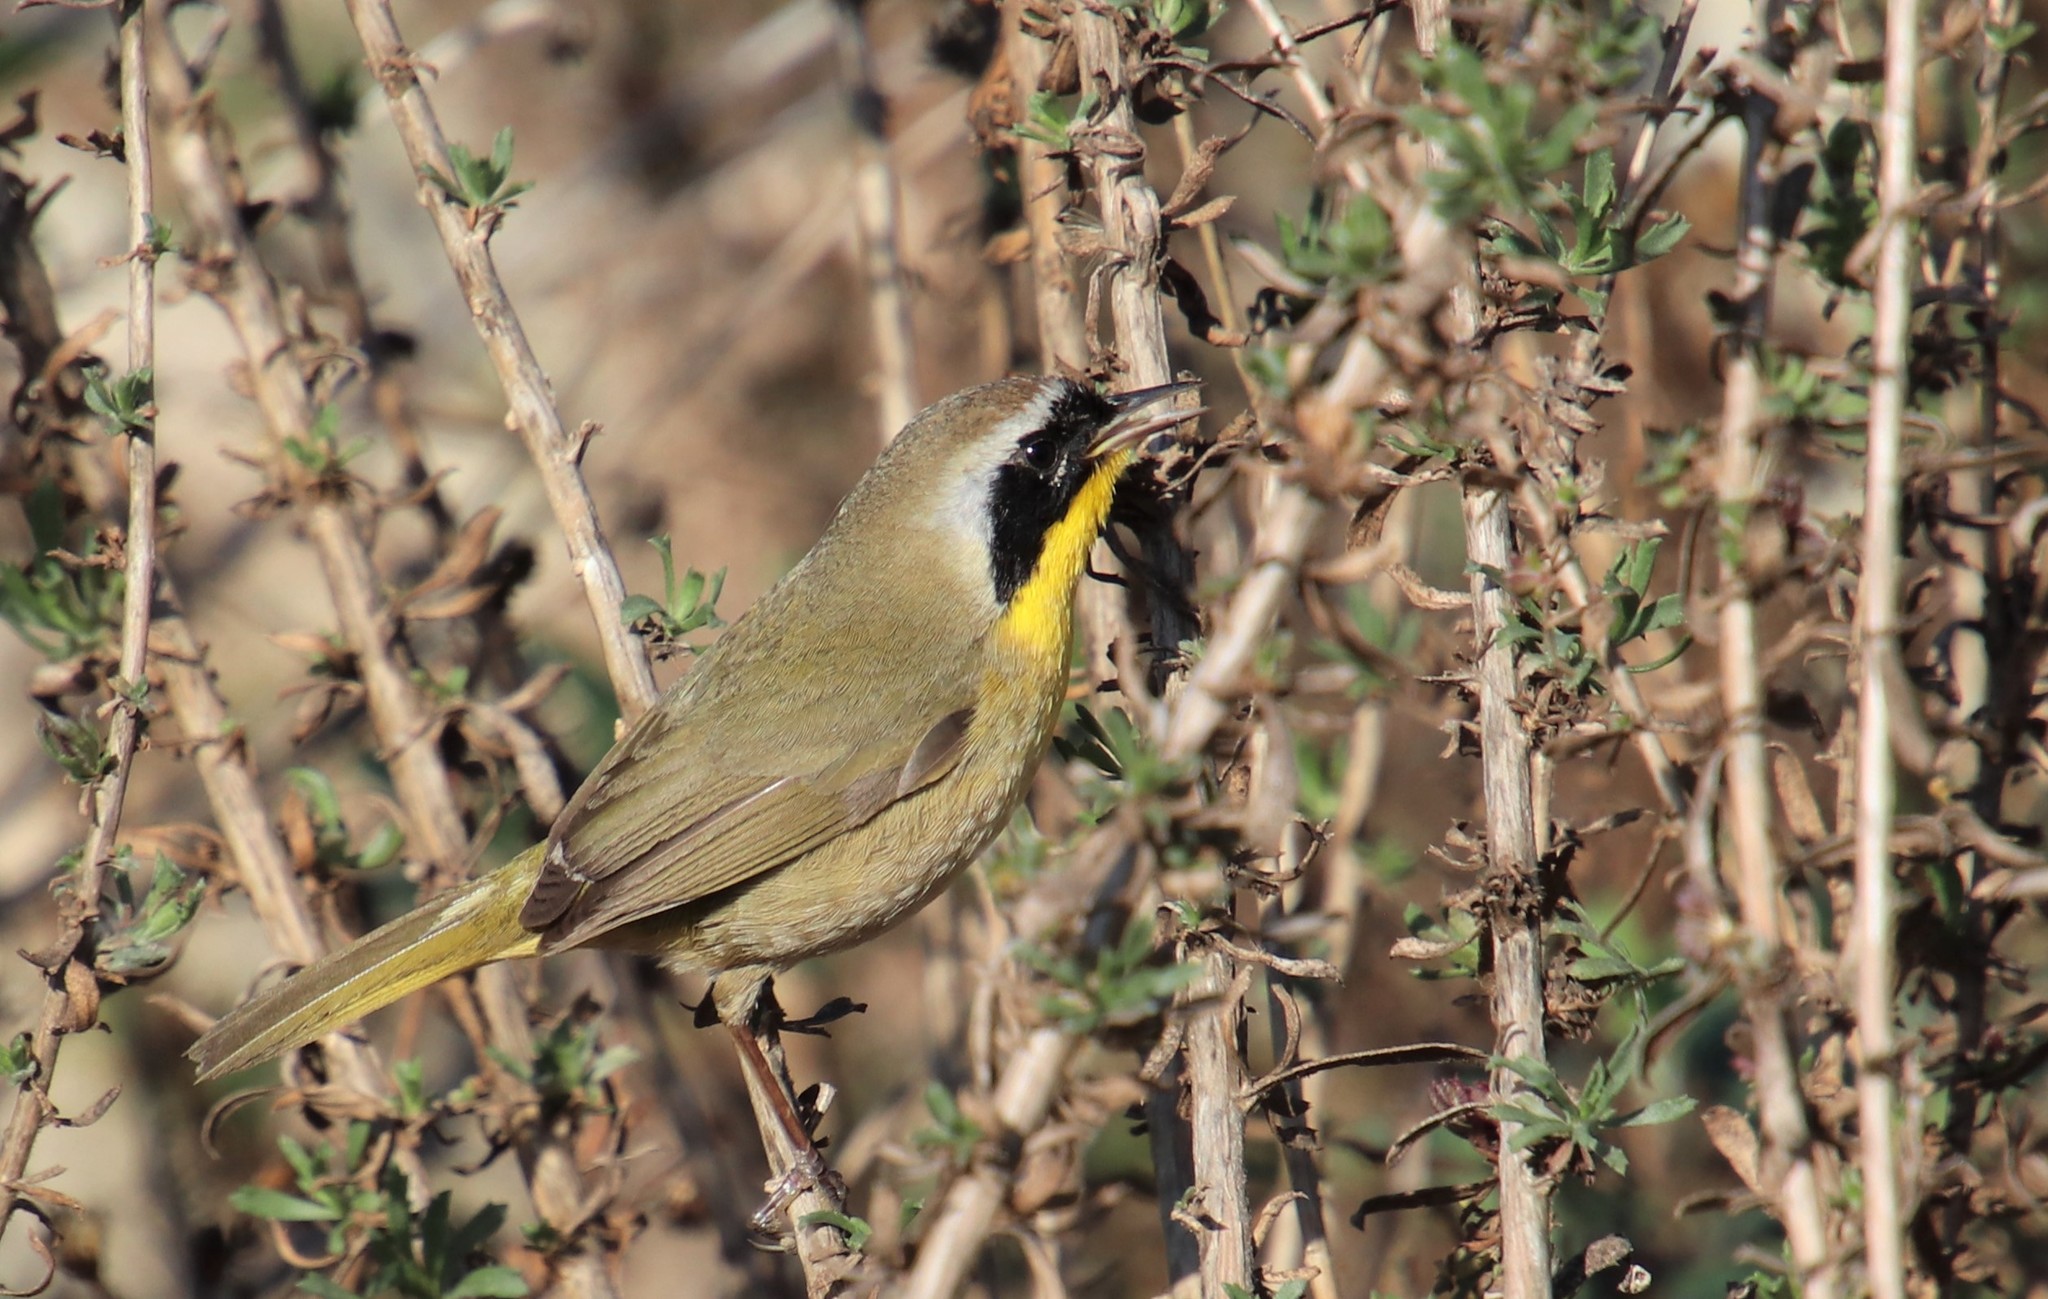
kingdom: Animalia
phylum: Chordata
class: Aves
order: Passeriformes
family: Parulidae
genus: Geothlypis
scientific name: Geothlypis trichas
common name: Common yellowthroat
